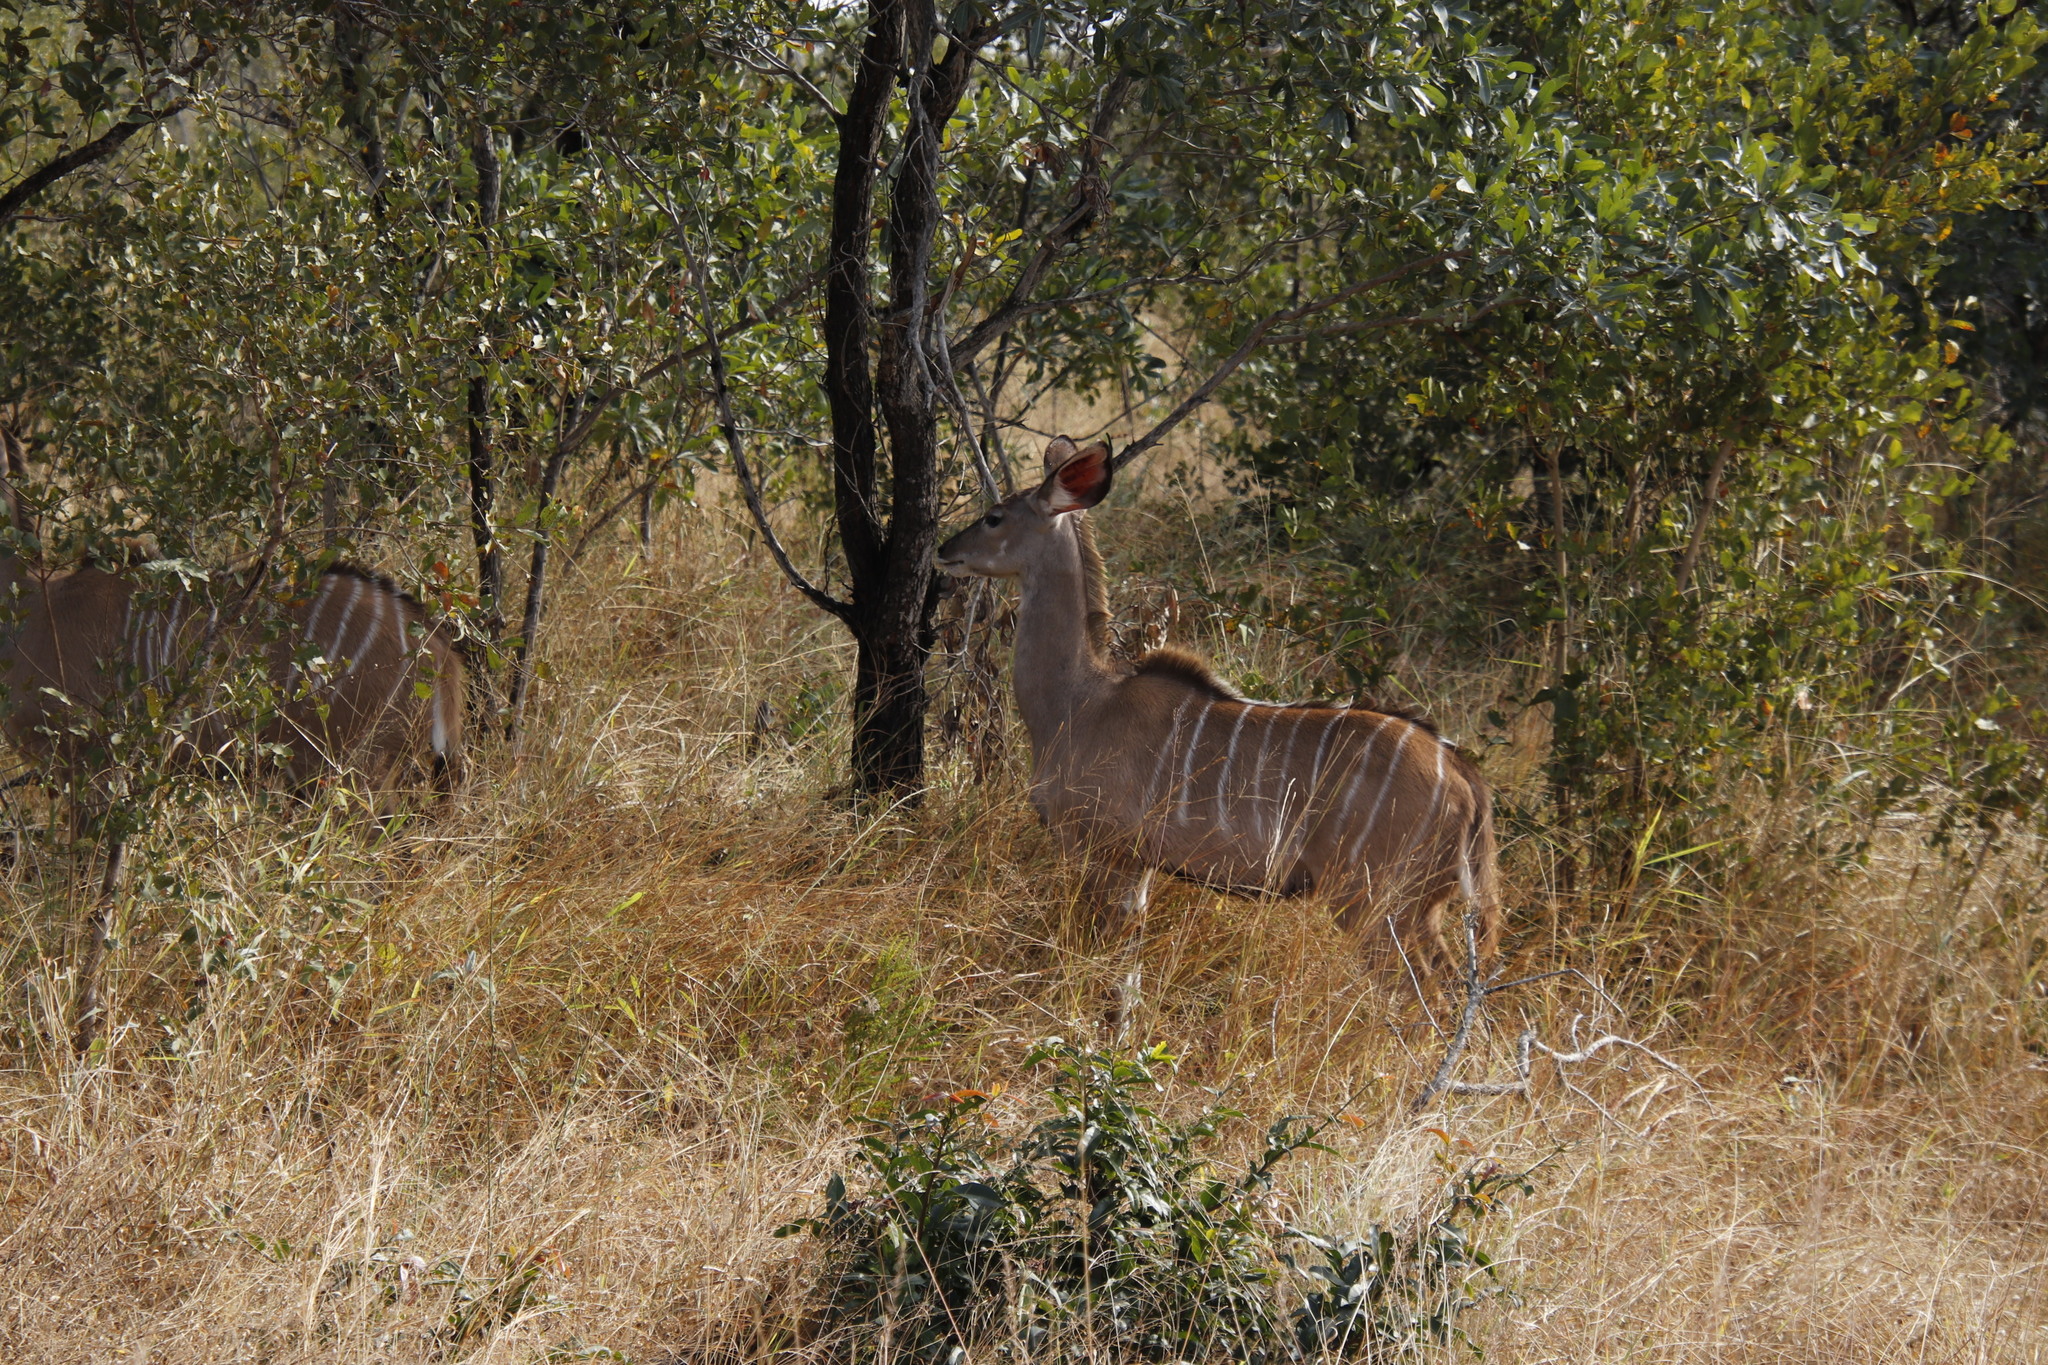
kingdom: Animalia
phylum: Chordata
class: Mammalia
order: Artiodactyla
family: Bovidae
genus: Tragelaphus
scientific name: Tragelaphus strepsiceros
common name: Greater kudu
